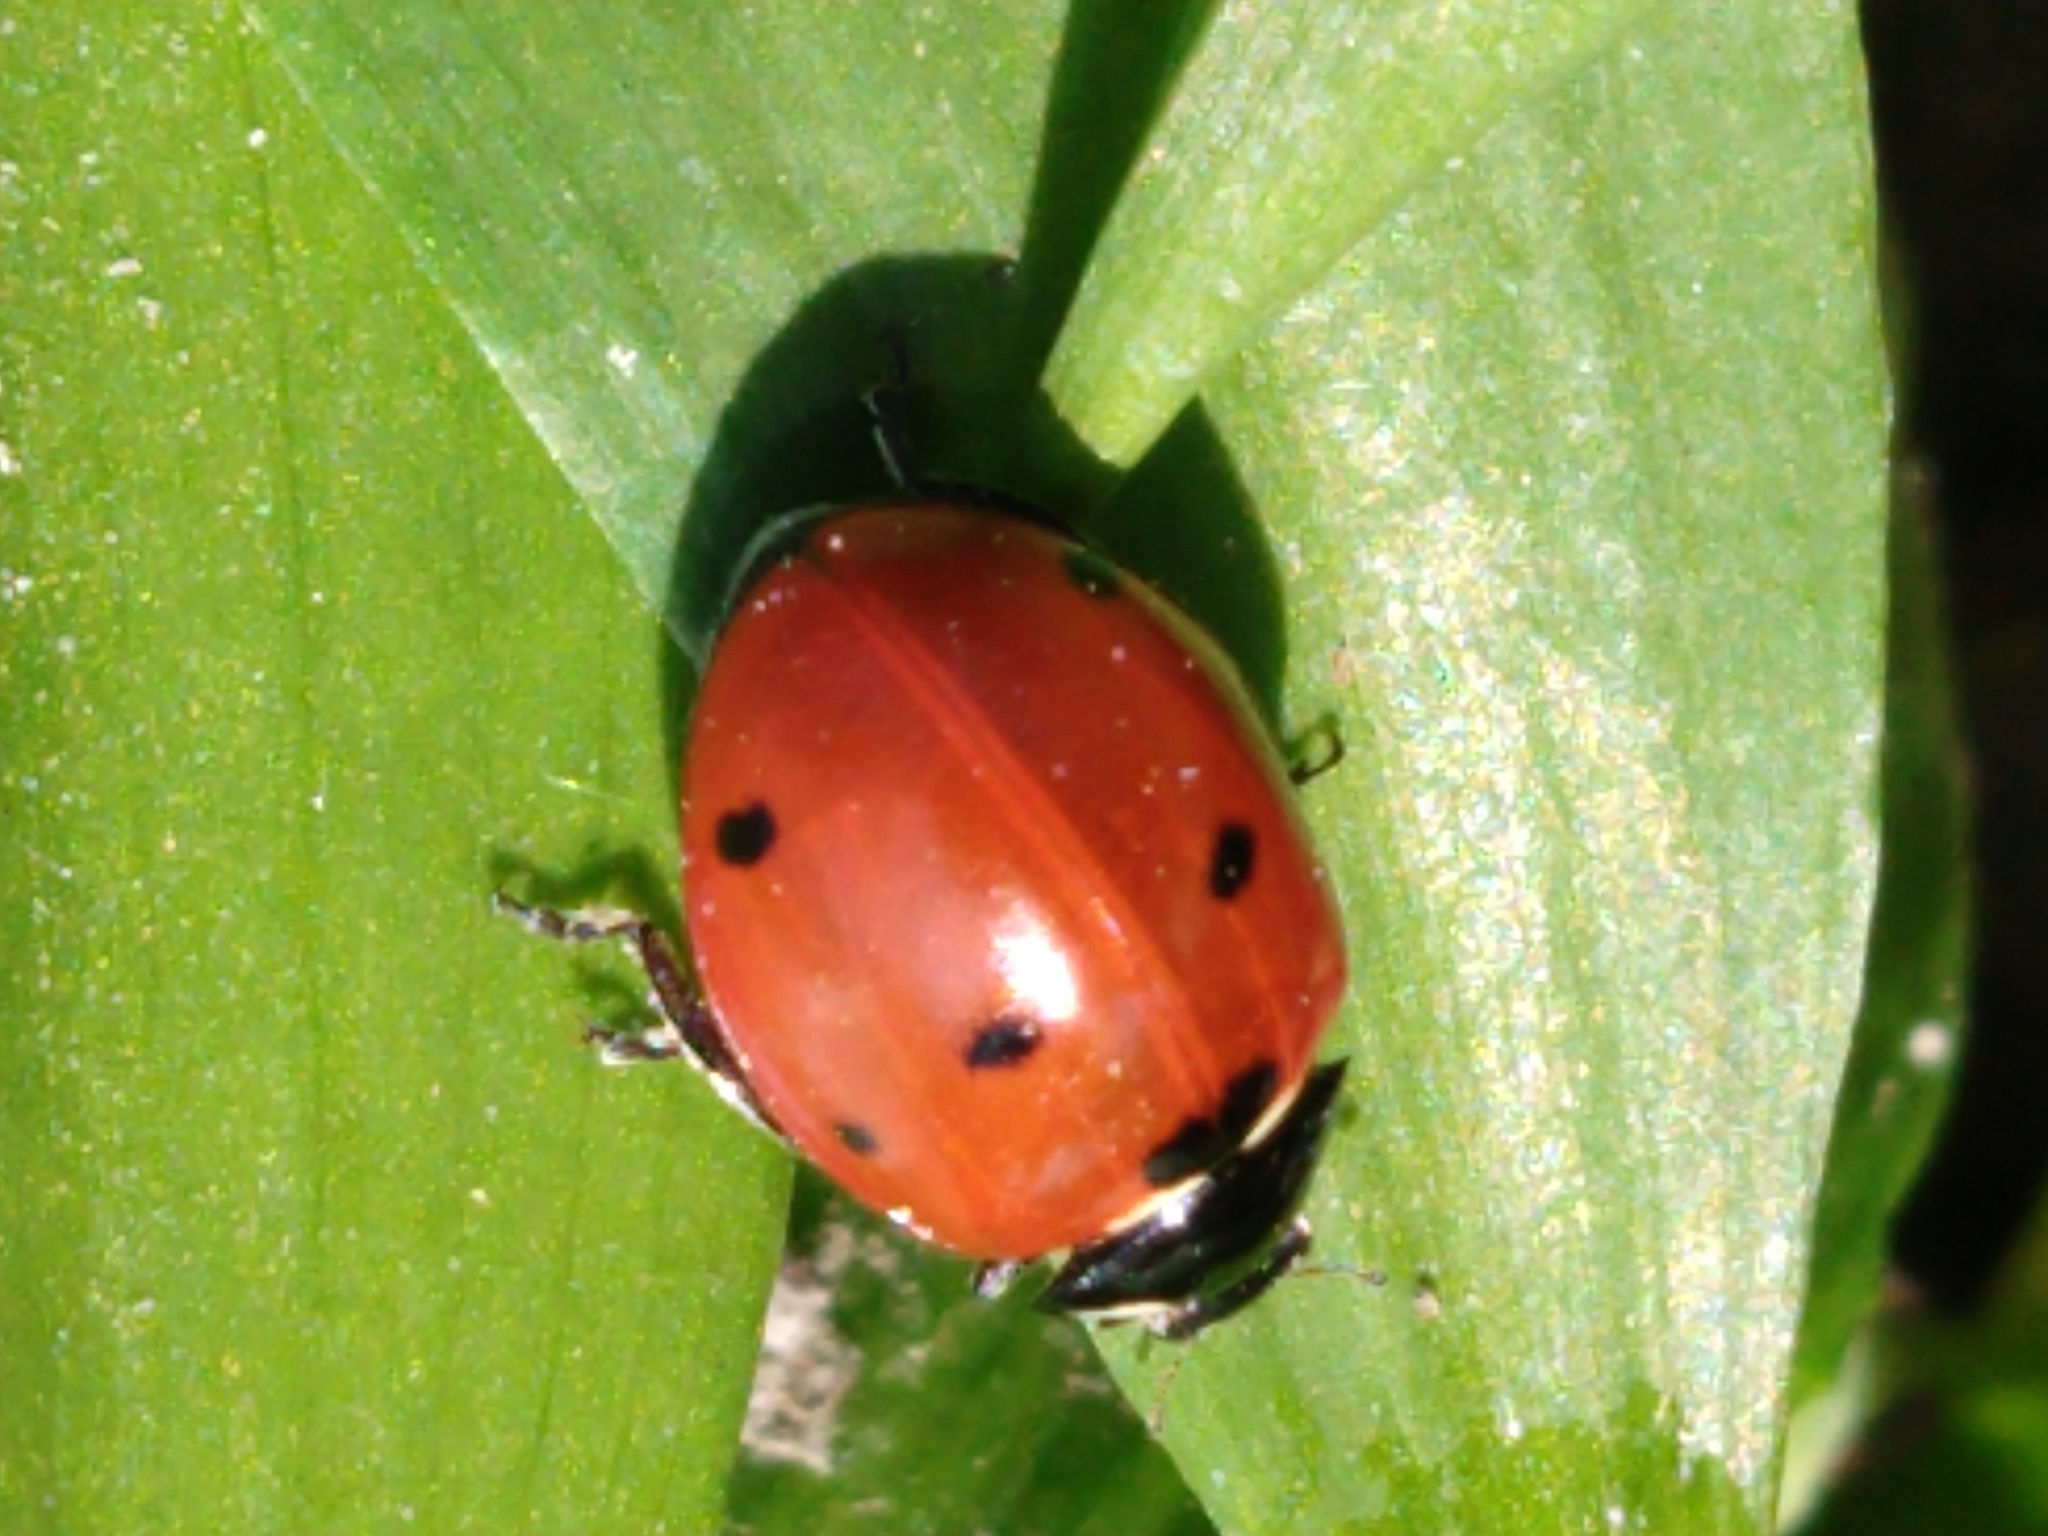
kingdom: Animalia
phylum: Arthropoda
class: Insecta
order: Coleoptera
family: Coccinellidae
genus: Coccinella
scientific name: Coccinella septempunctata
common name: Sevenspotted lady beetle
